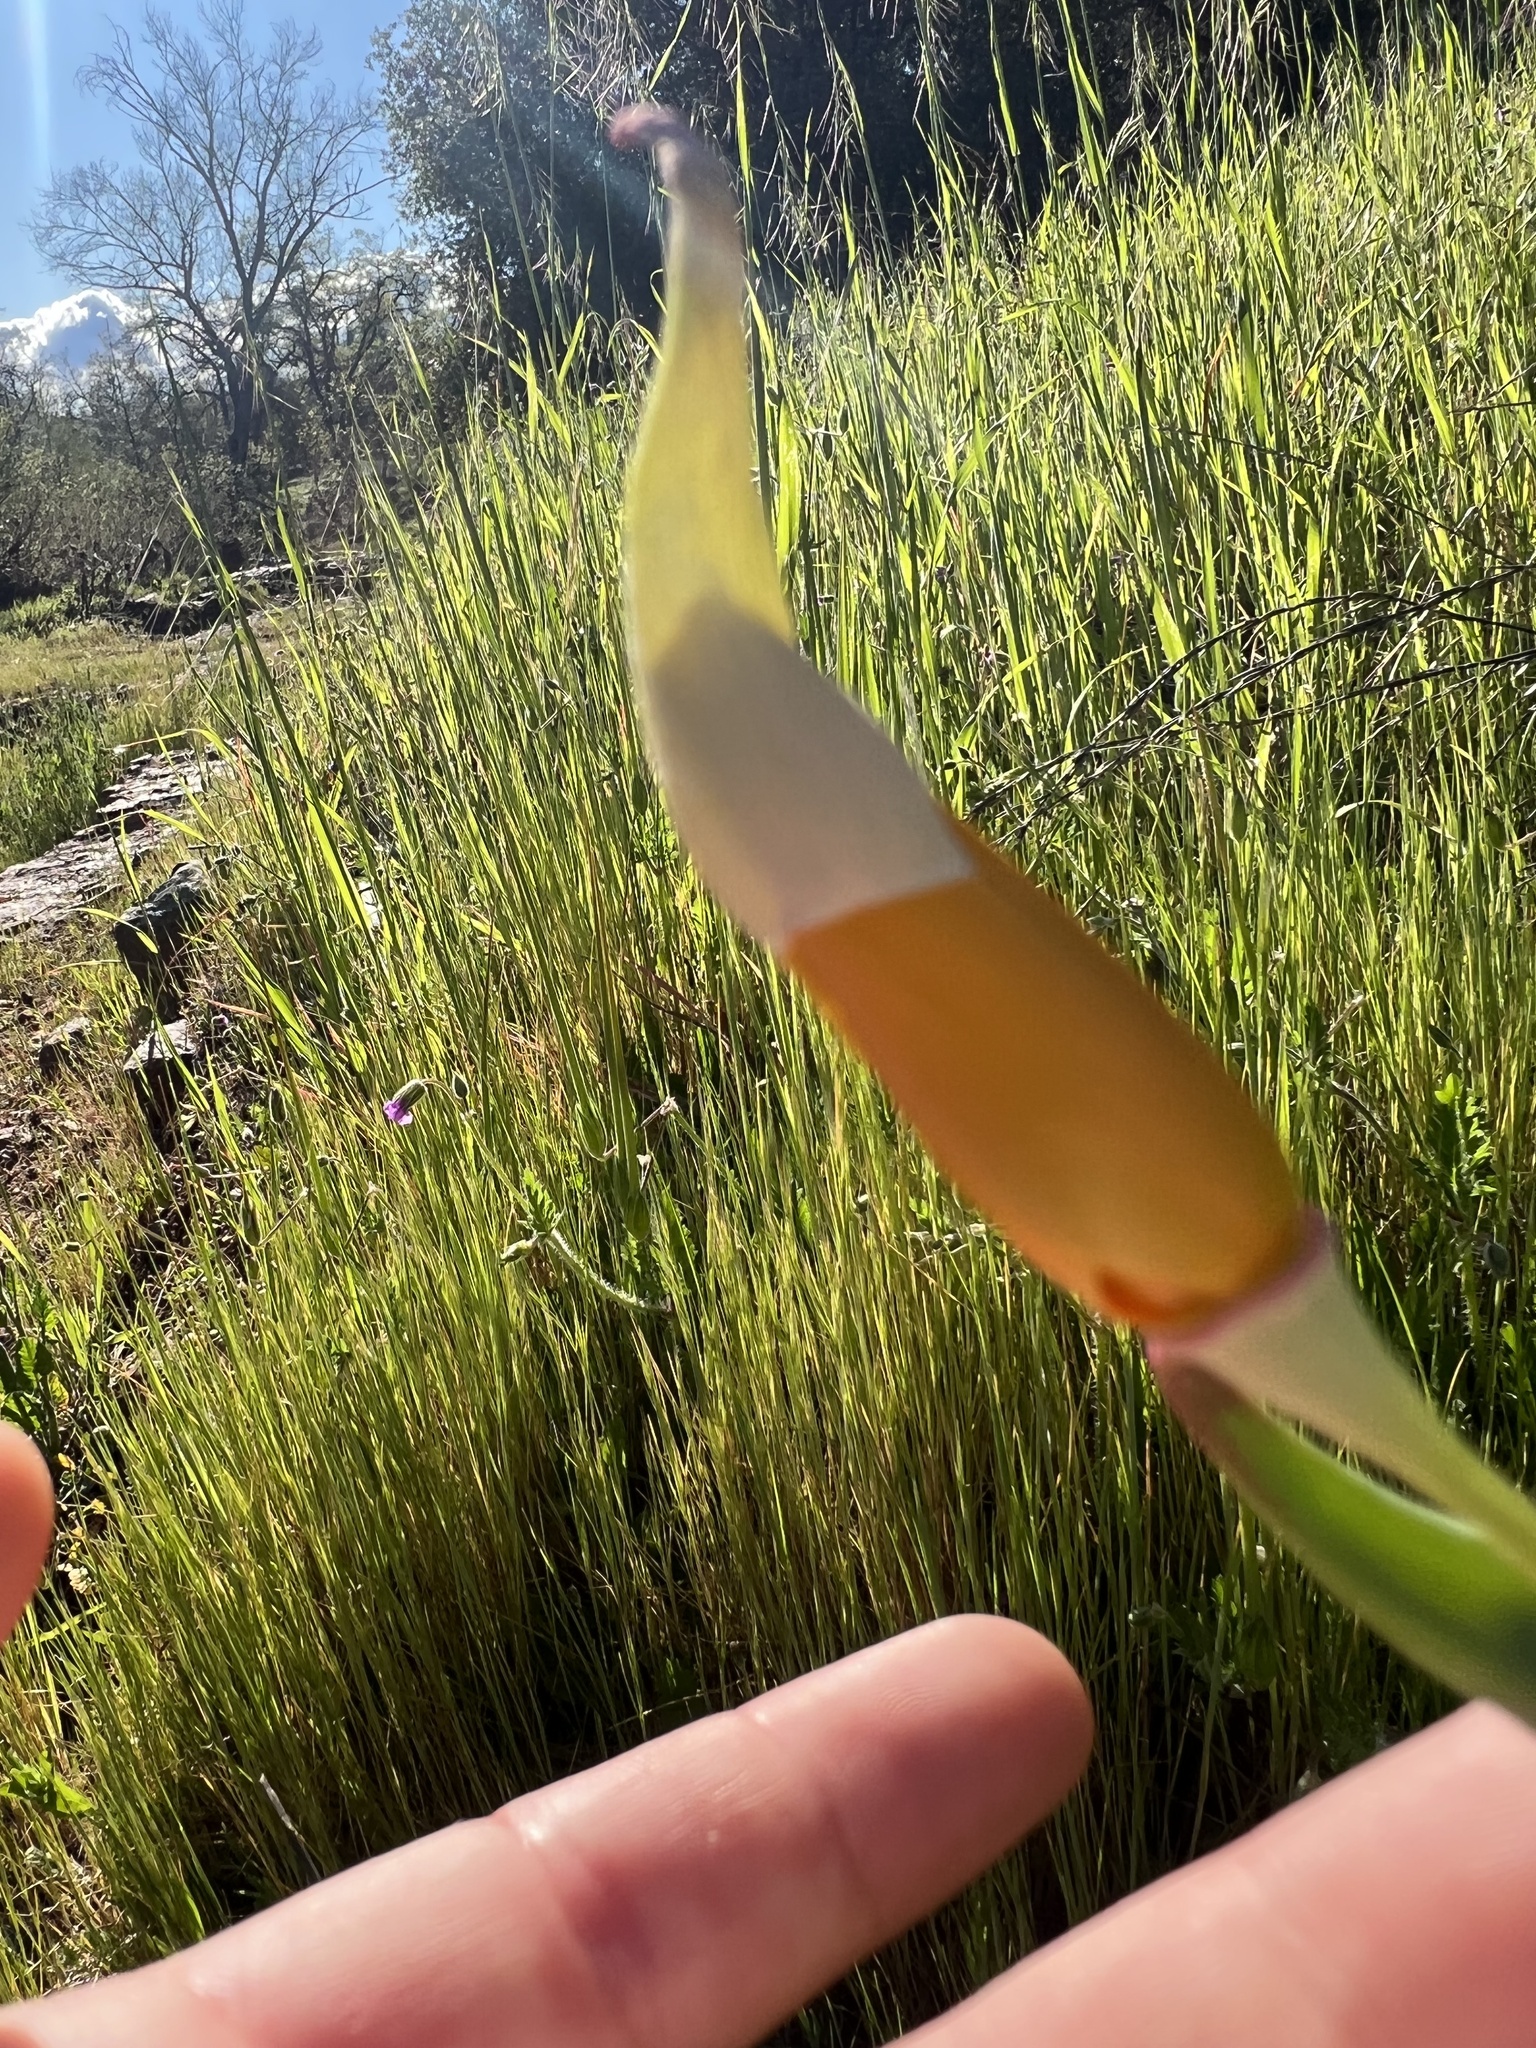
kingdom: Plantae
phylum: Tracheophyta
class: Magnoliopsida
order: Ranunculales
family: Papaveraceae
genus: Eschscholzia
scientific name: Eschscholzia californica
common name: California poppy
